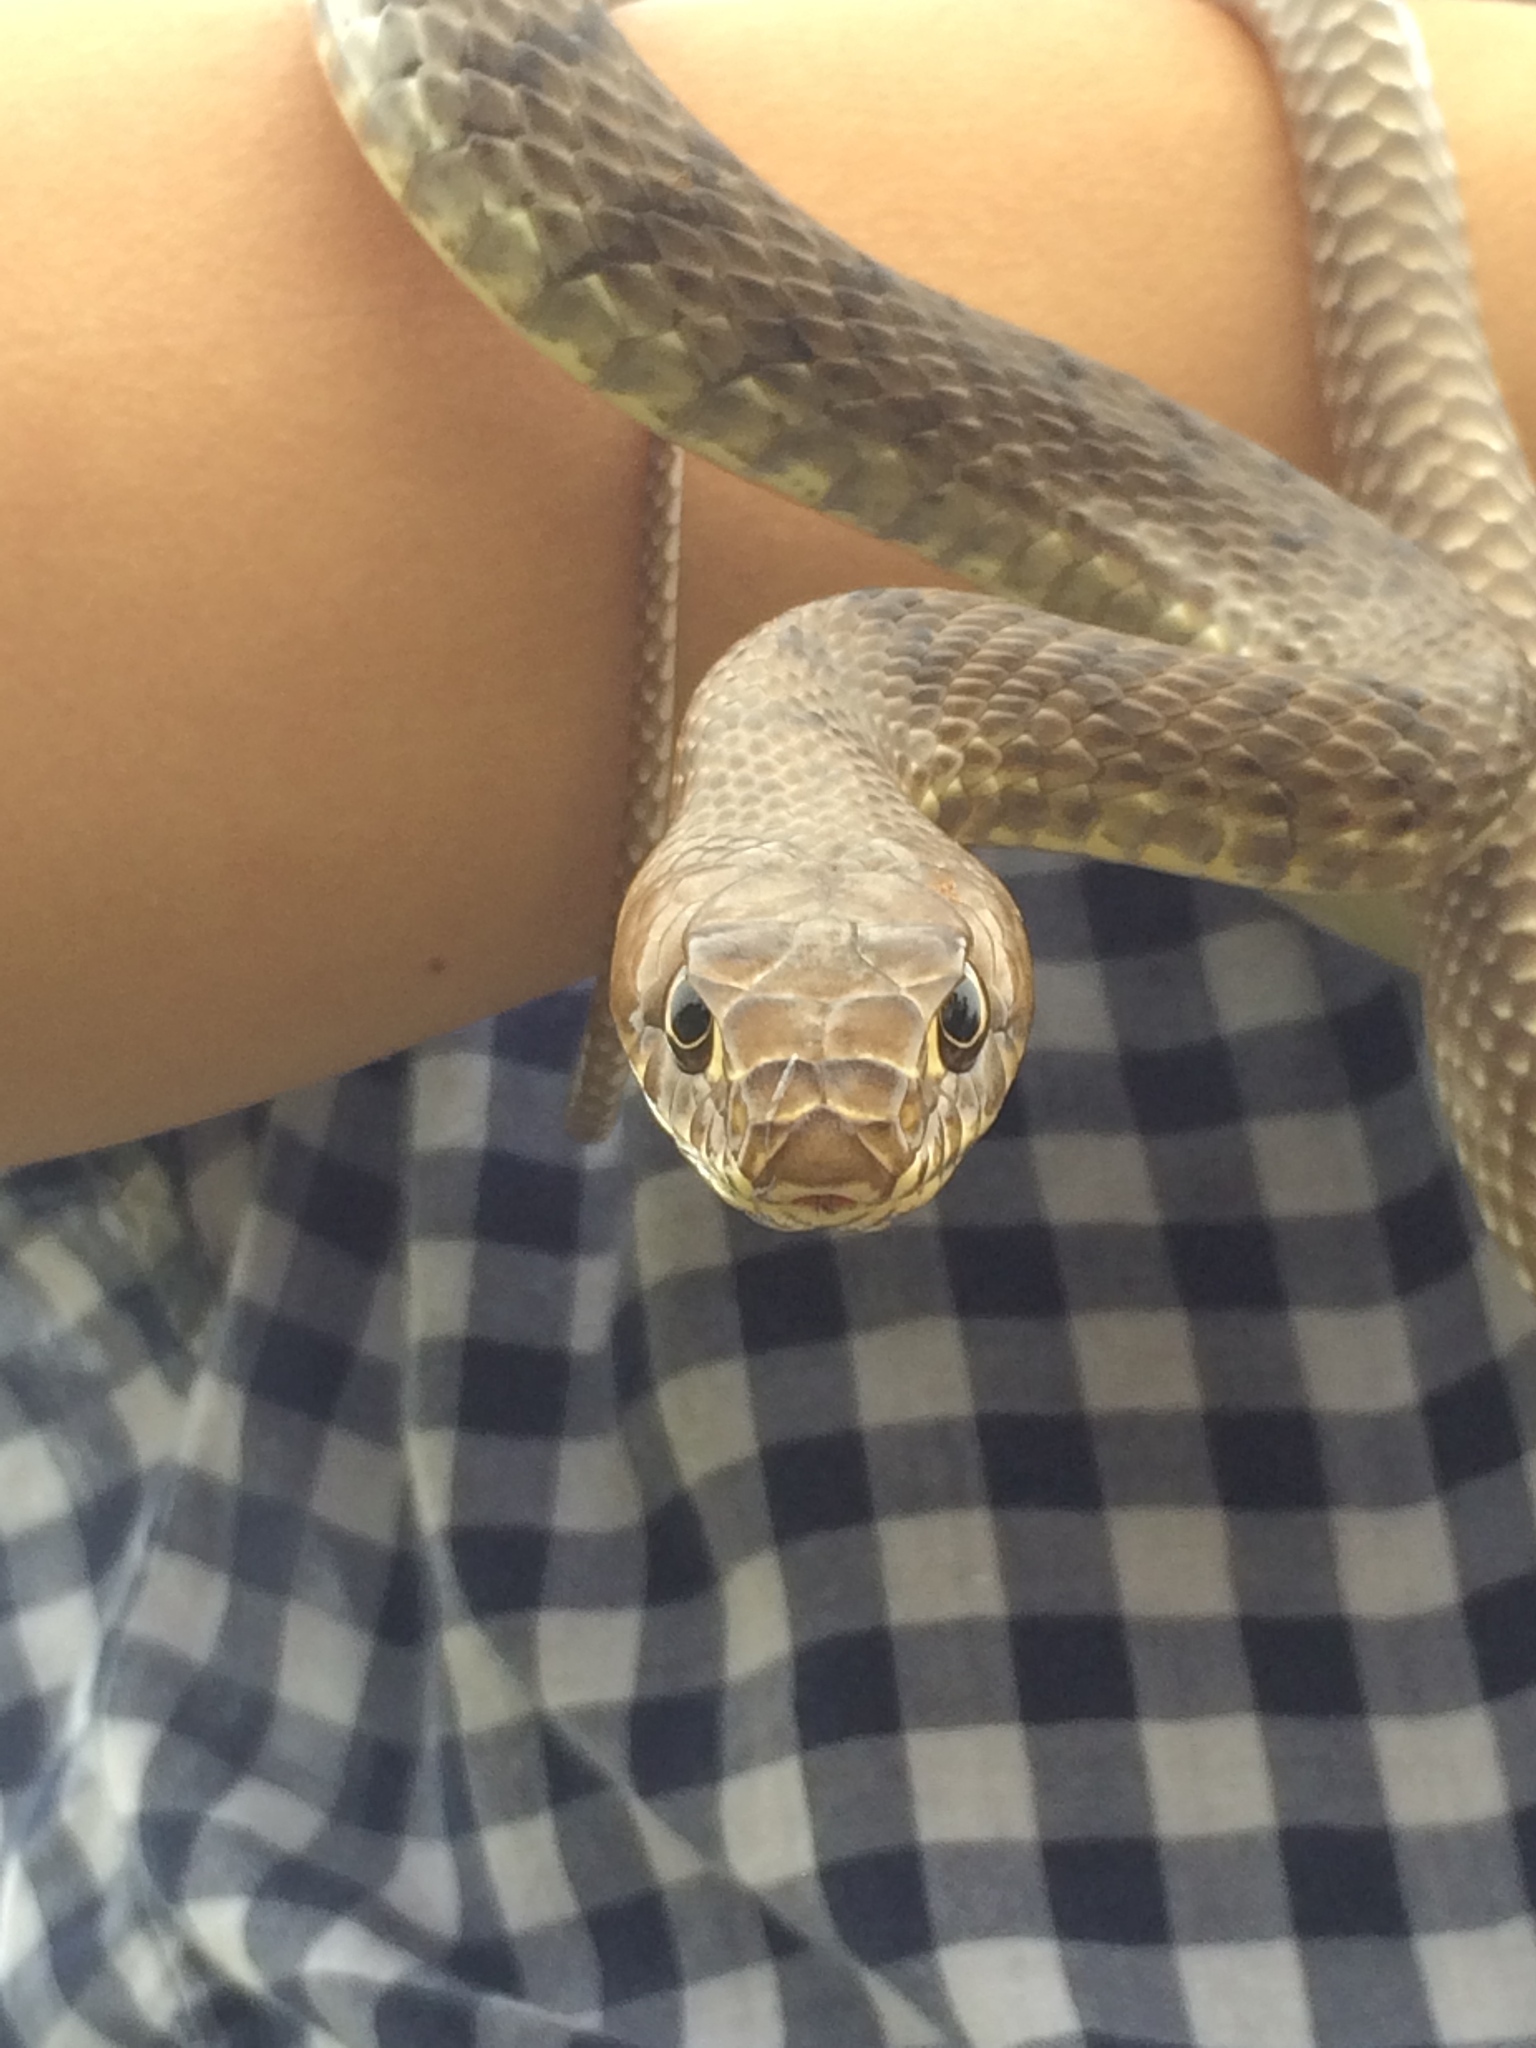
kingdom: Animalia
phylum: Chordata
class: Squamata
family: Colubridae
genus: Masticophis
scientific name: Masticophis flagellum
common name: Coachwhip
